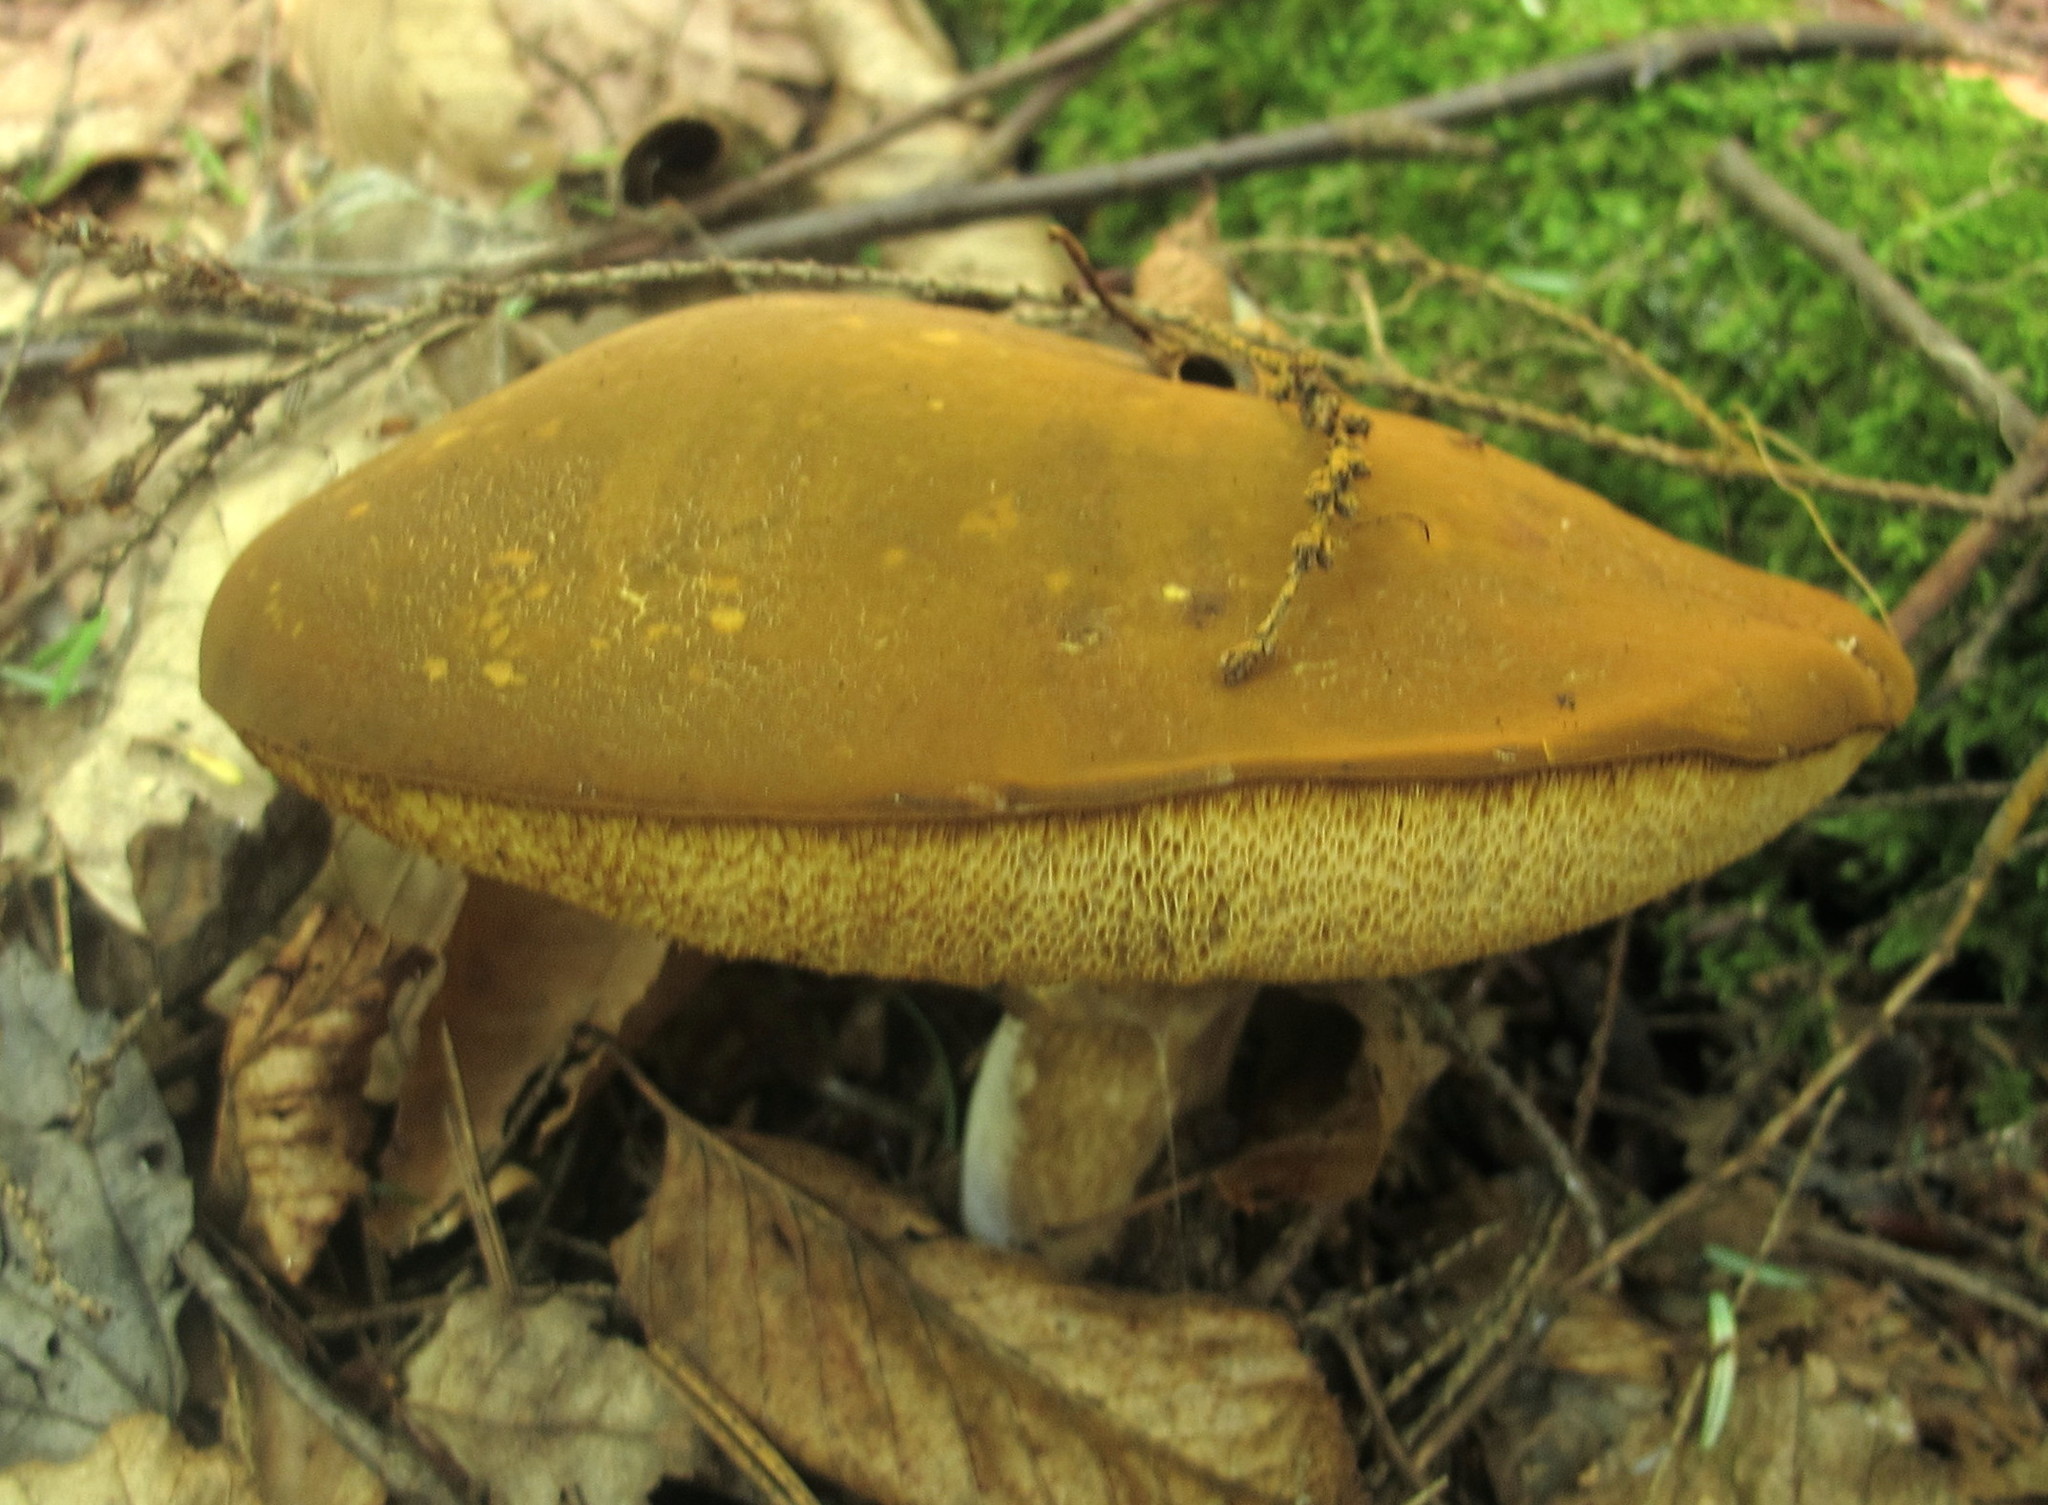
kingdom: Fungi
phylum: Basidiomycota
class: Agaricomycetes
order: Boletales
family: Boletaceae
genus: Xanthoconium
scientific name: Xanthoconium affine
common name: Spotted bolete
